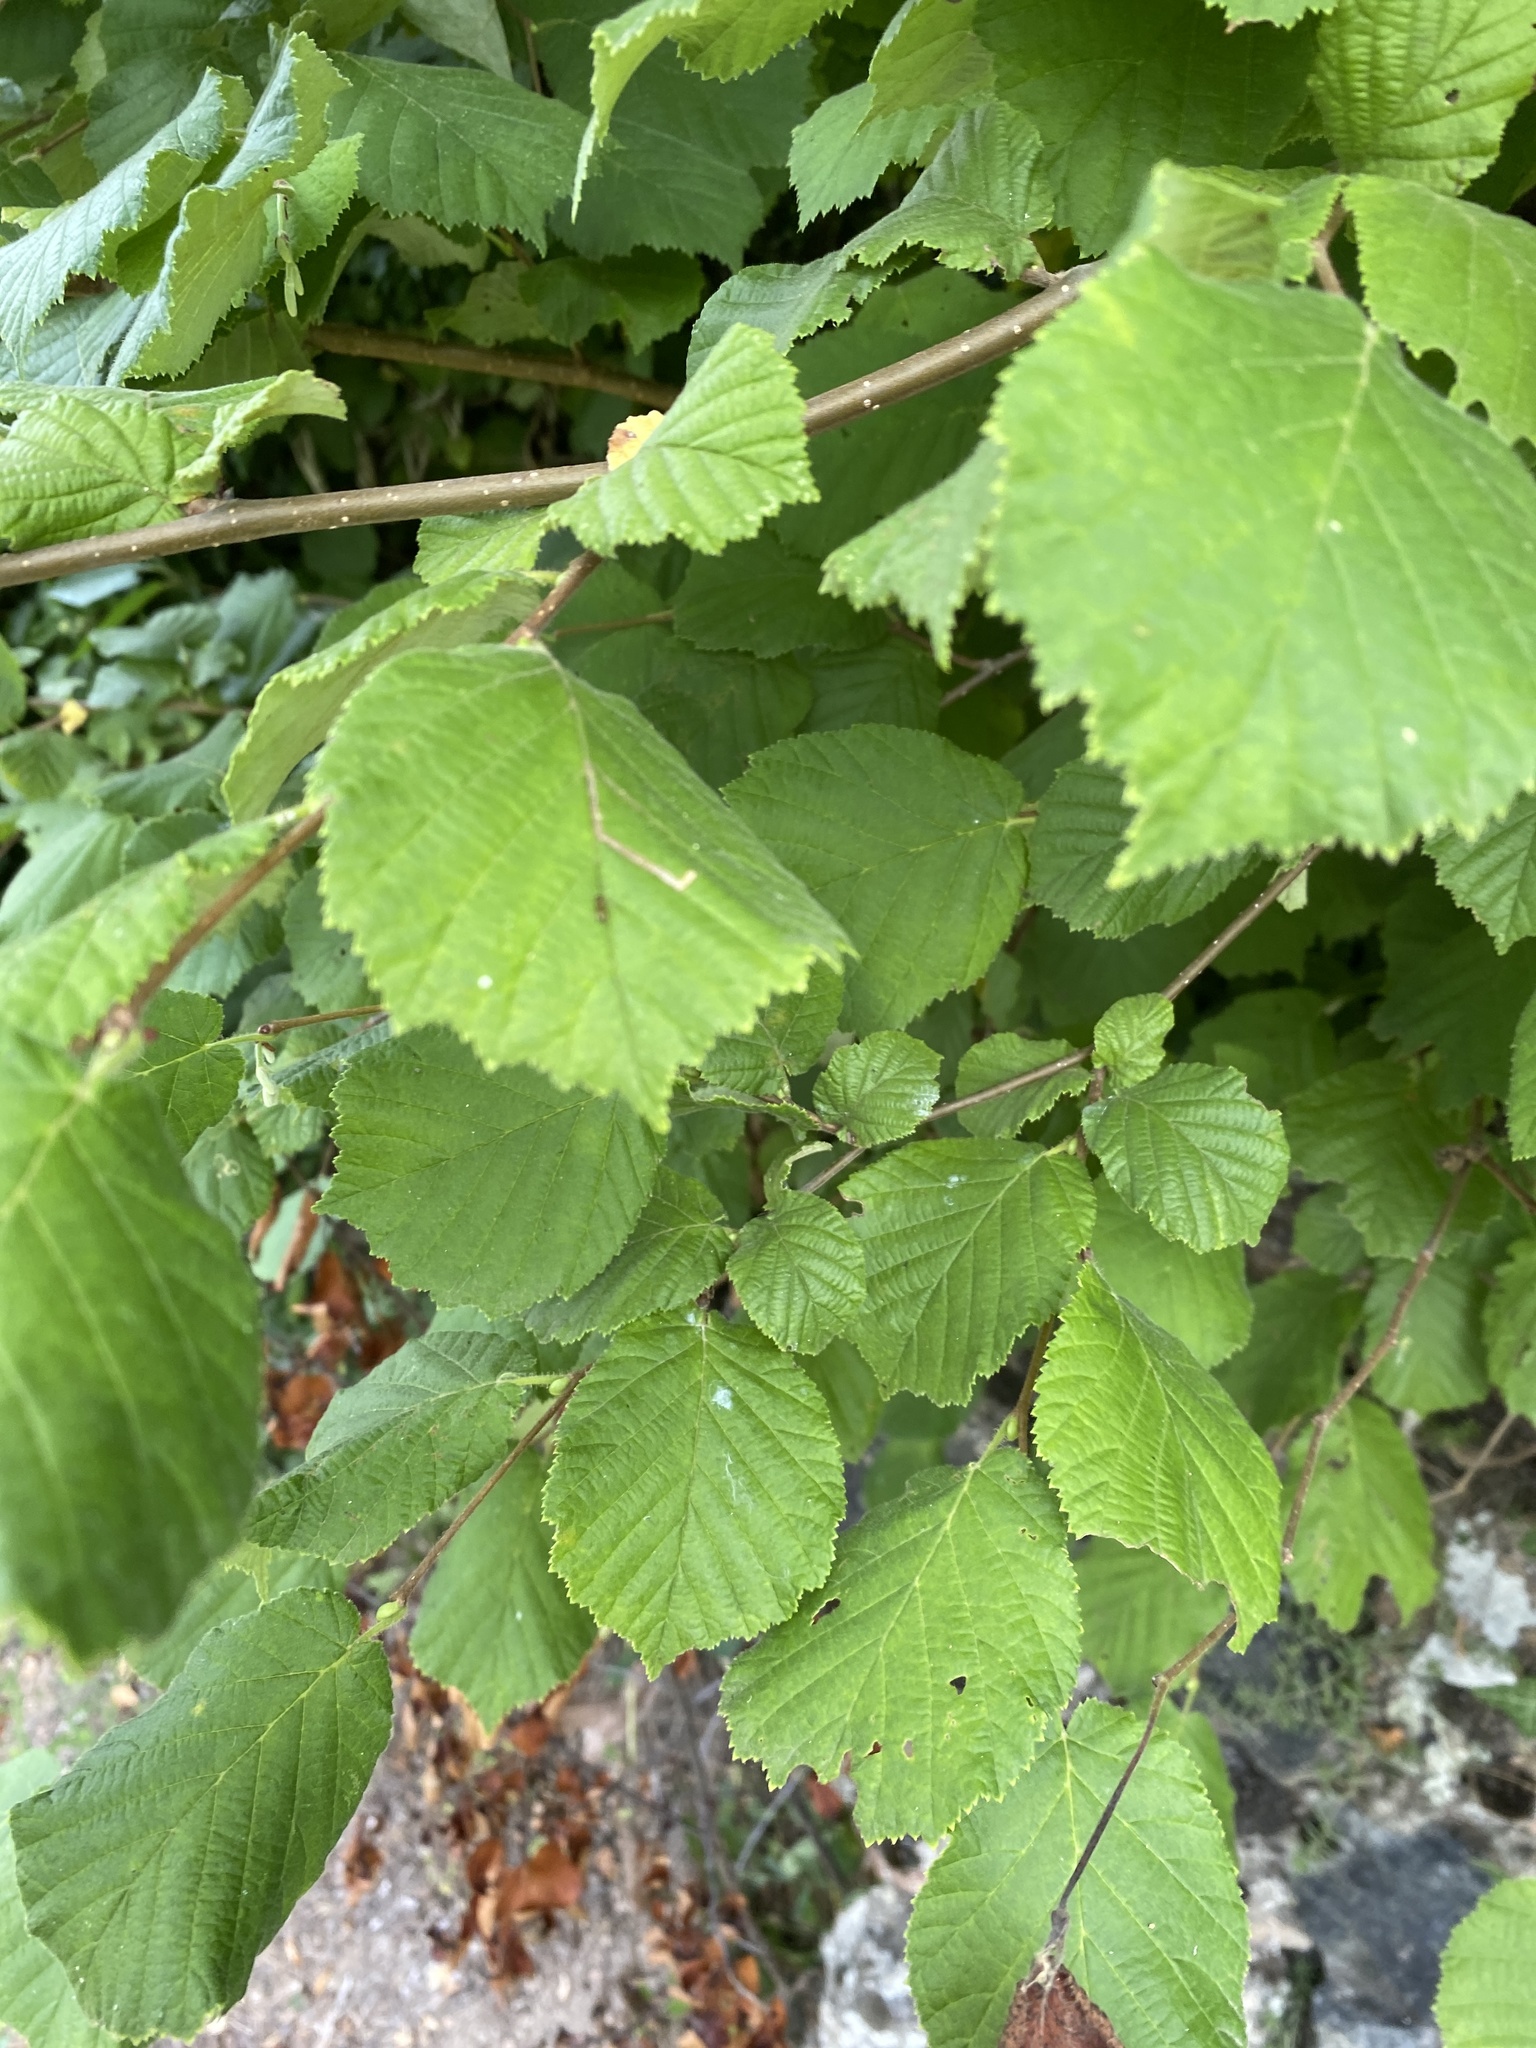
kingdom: Plantae
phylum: Tracheophyta
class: Magnoliopsida
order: Fagales
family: Betulaceae
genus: Corylus
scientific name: Corylus avellana
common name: European hazel
